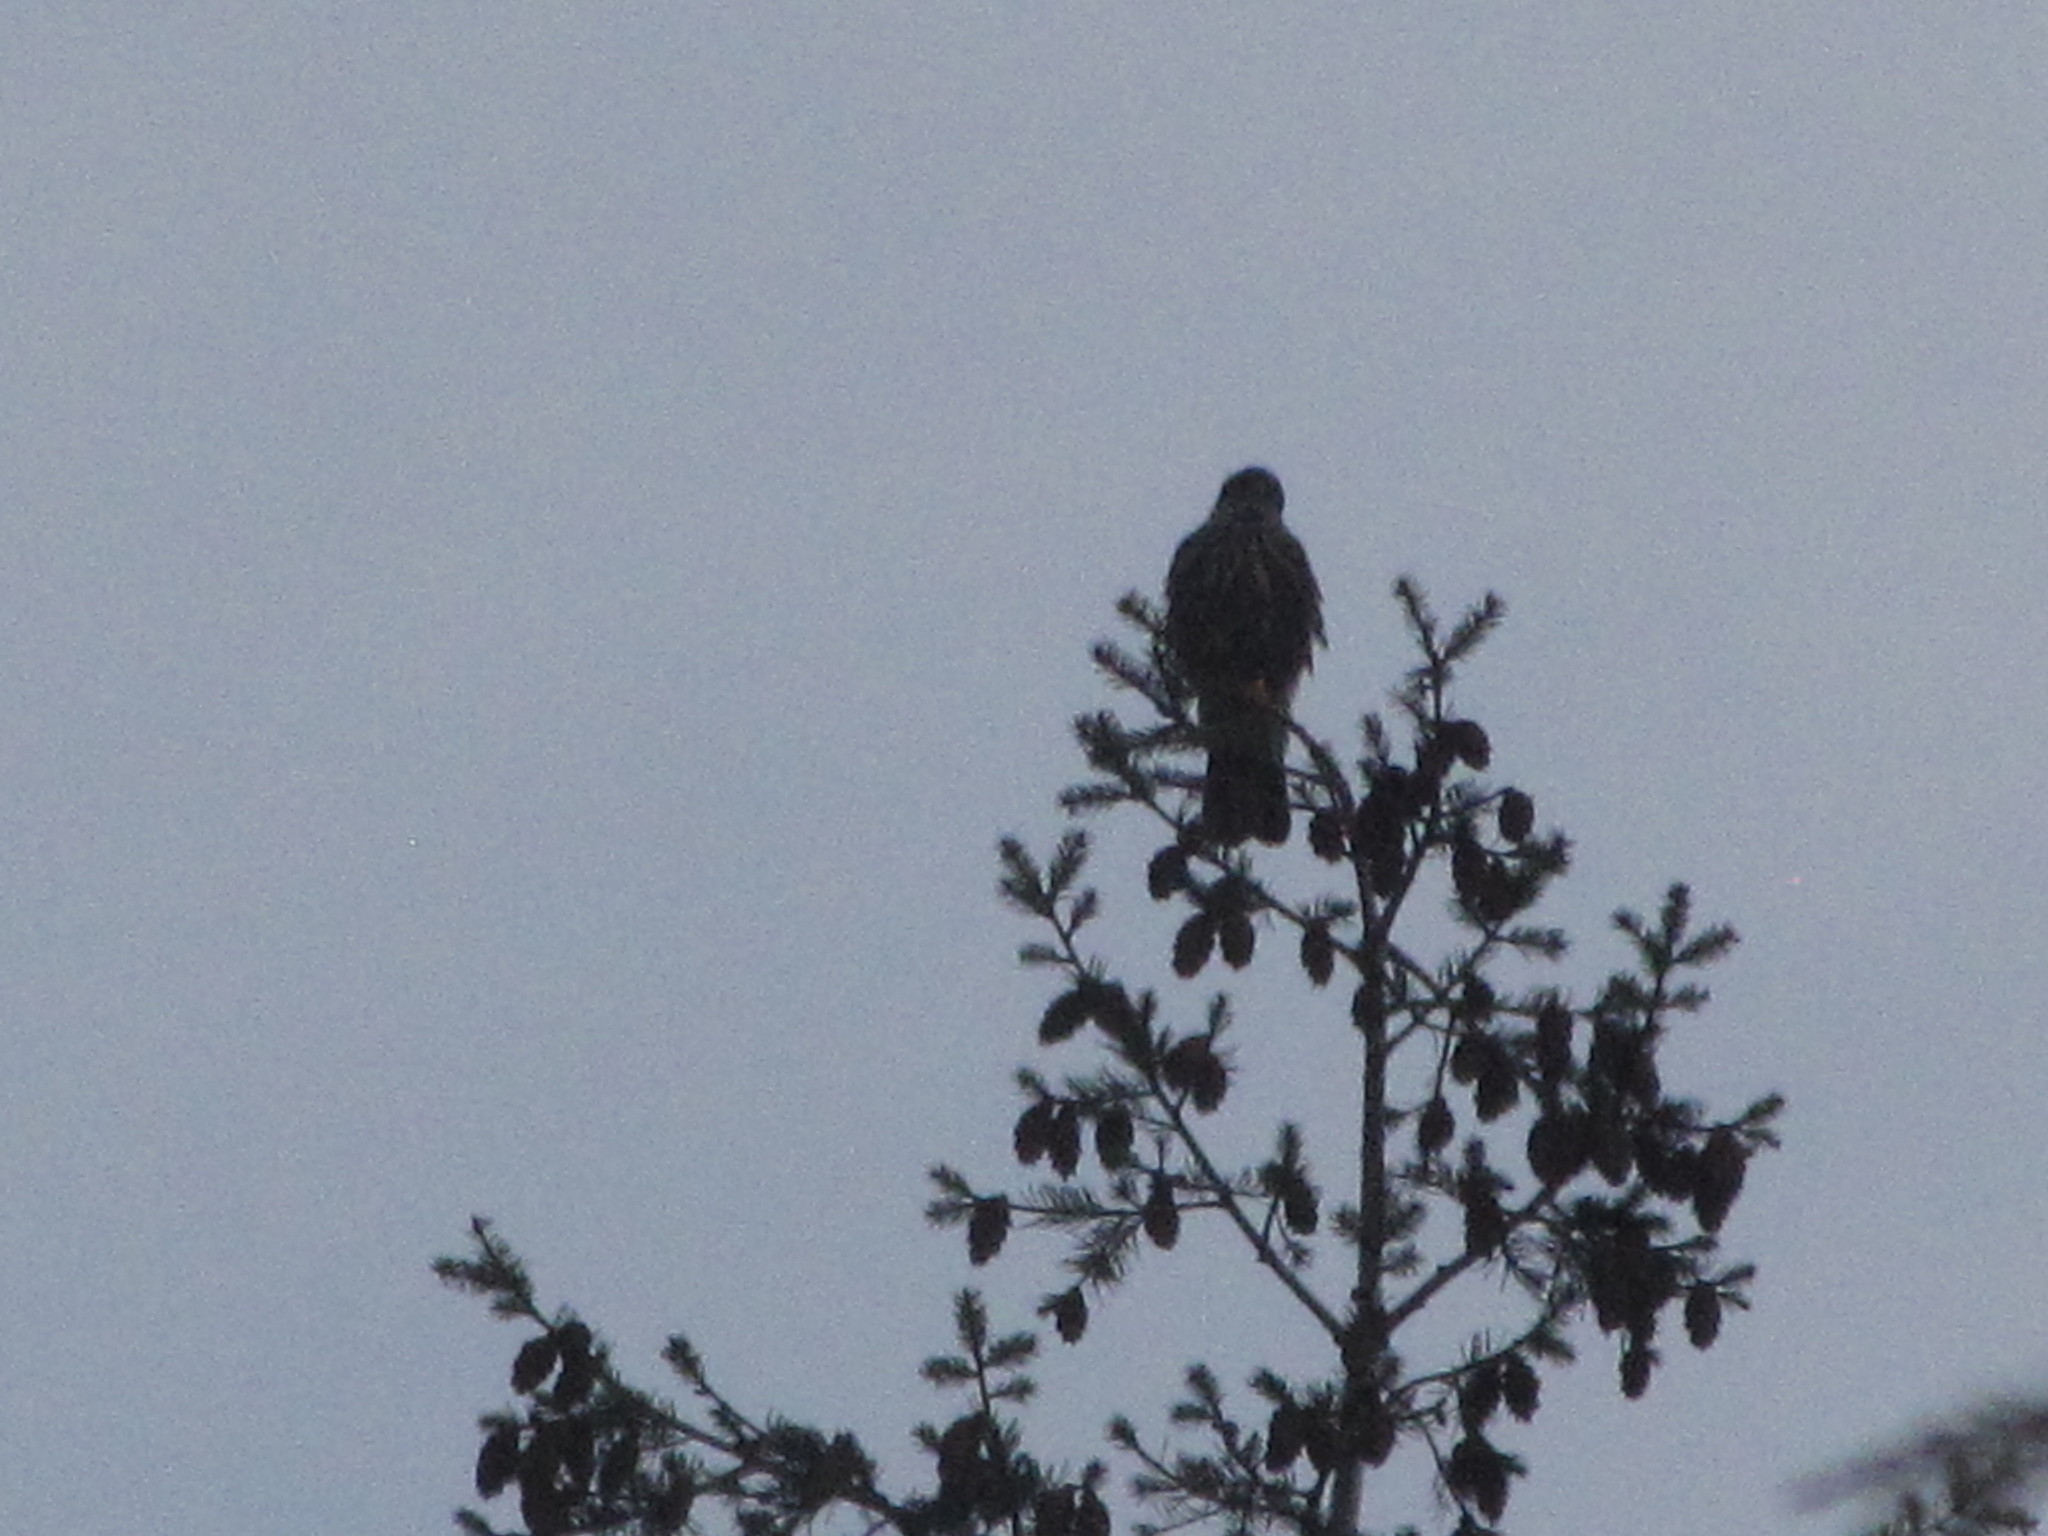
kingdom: Animalia
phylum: Chordata
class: Aves
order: Falconiformes
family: Falconidae
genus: Falco
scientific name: Falco columbarius
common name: Merlin
